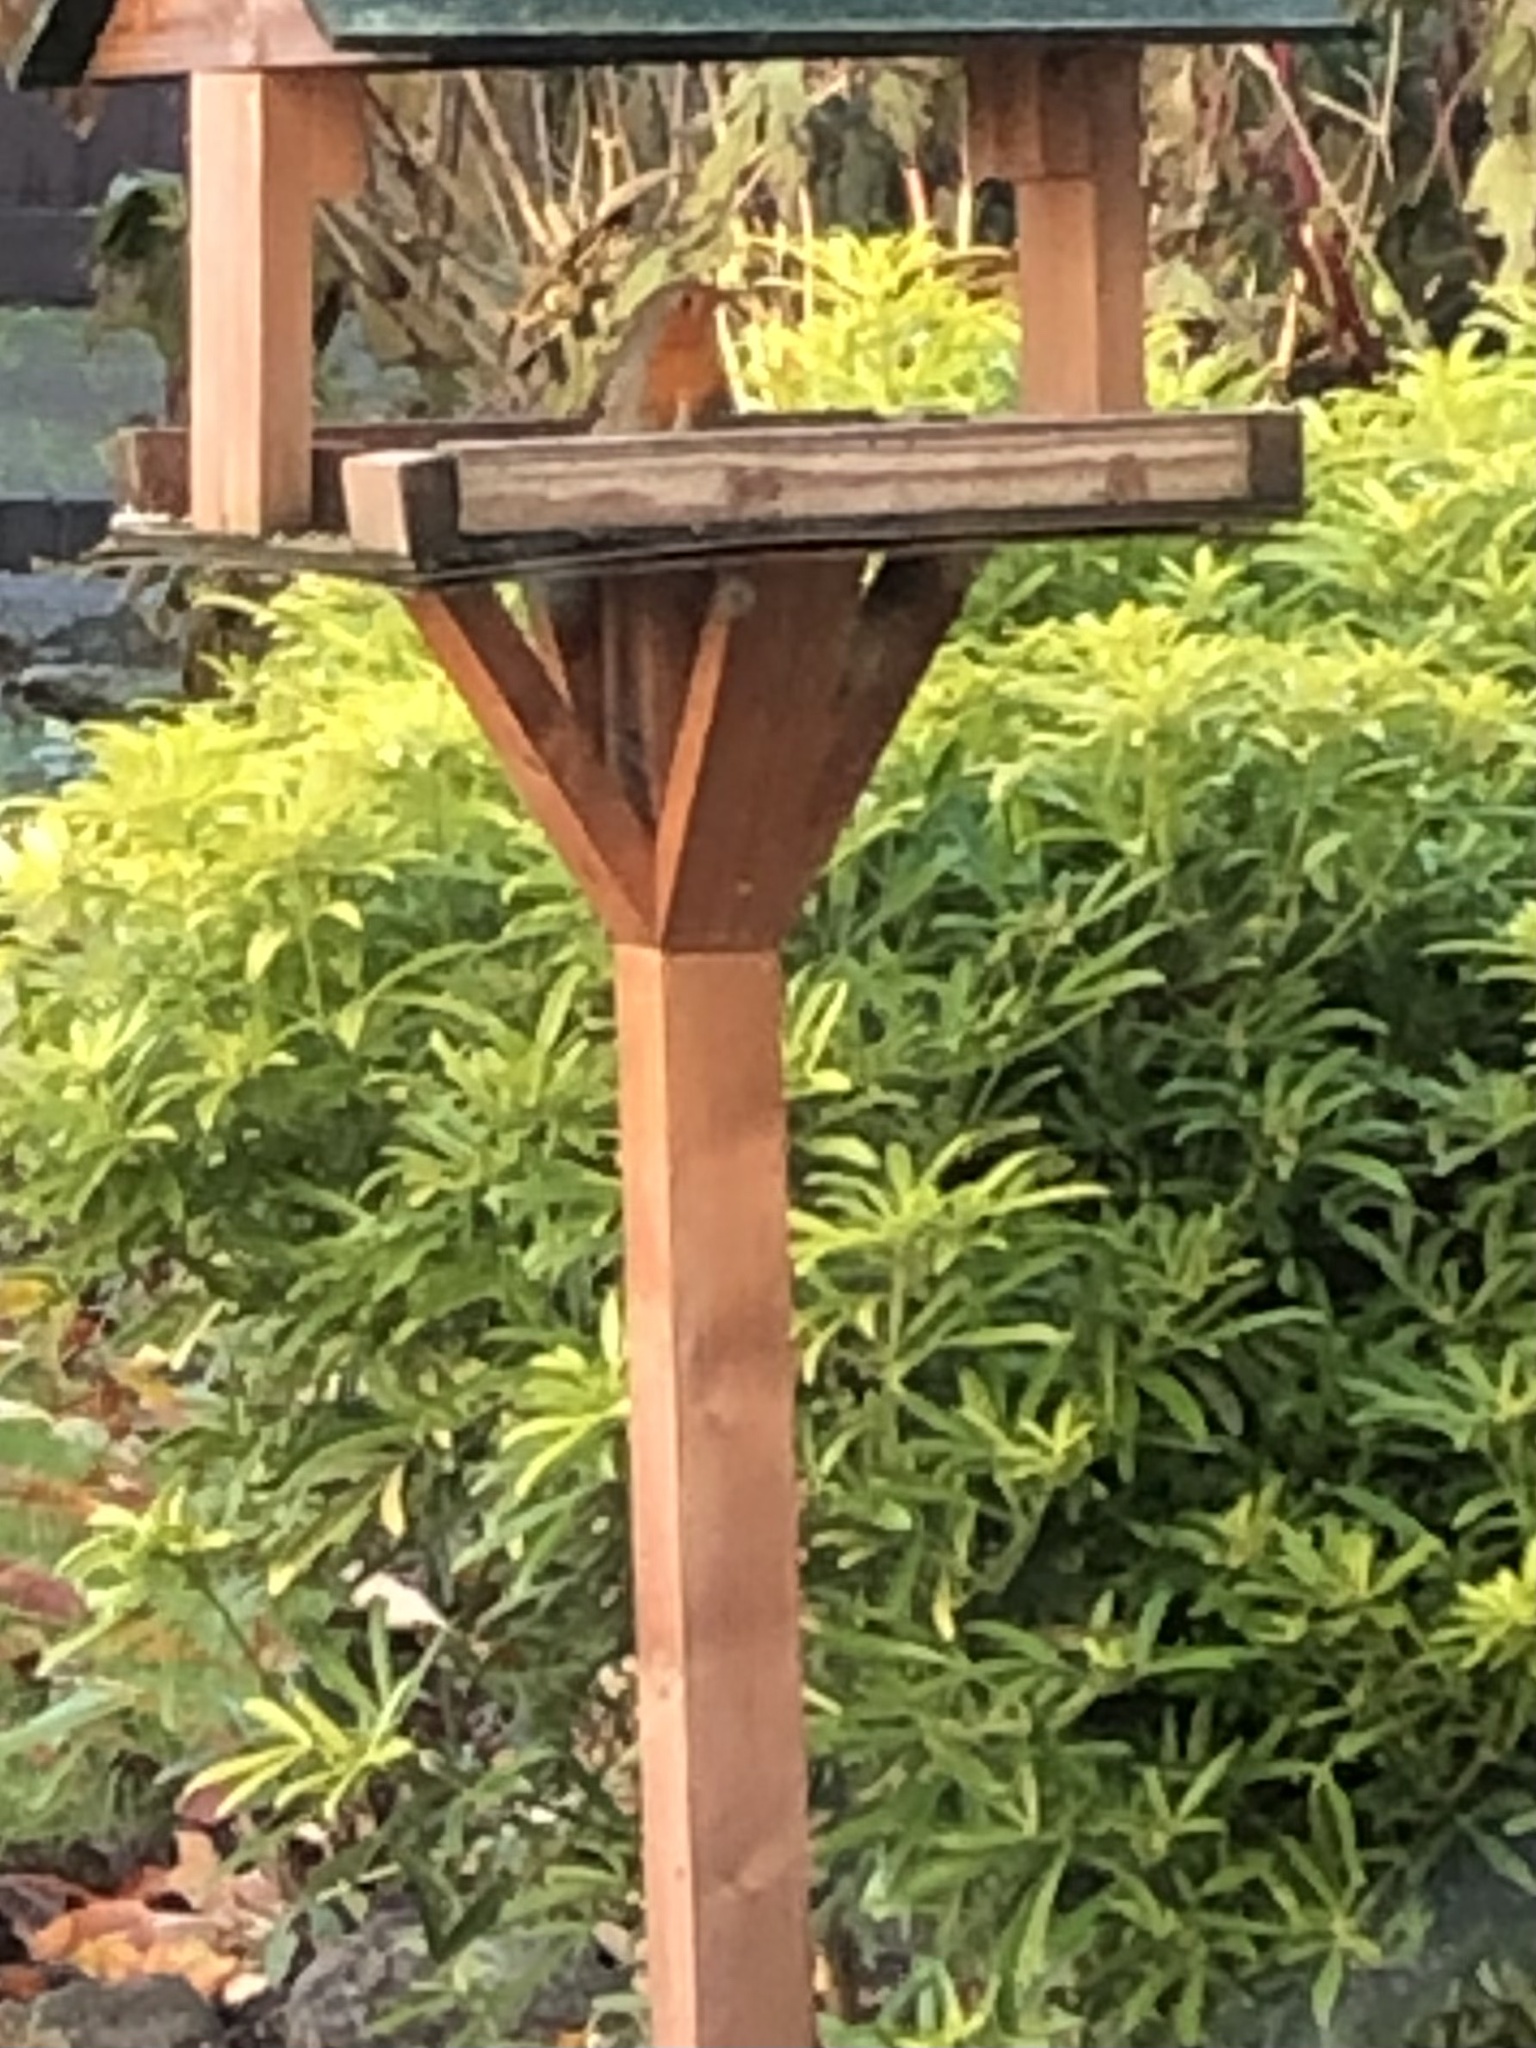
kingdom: Animalia
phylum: Chordata
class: Aves
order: Passeriformes
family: Muscicapidae
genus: Erithacus
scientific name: Erithacus rubecula
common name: European robin
